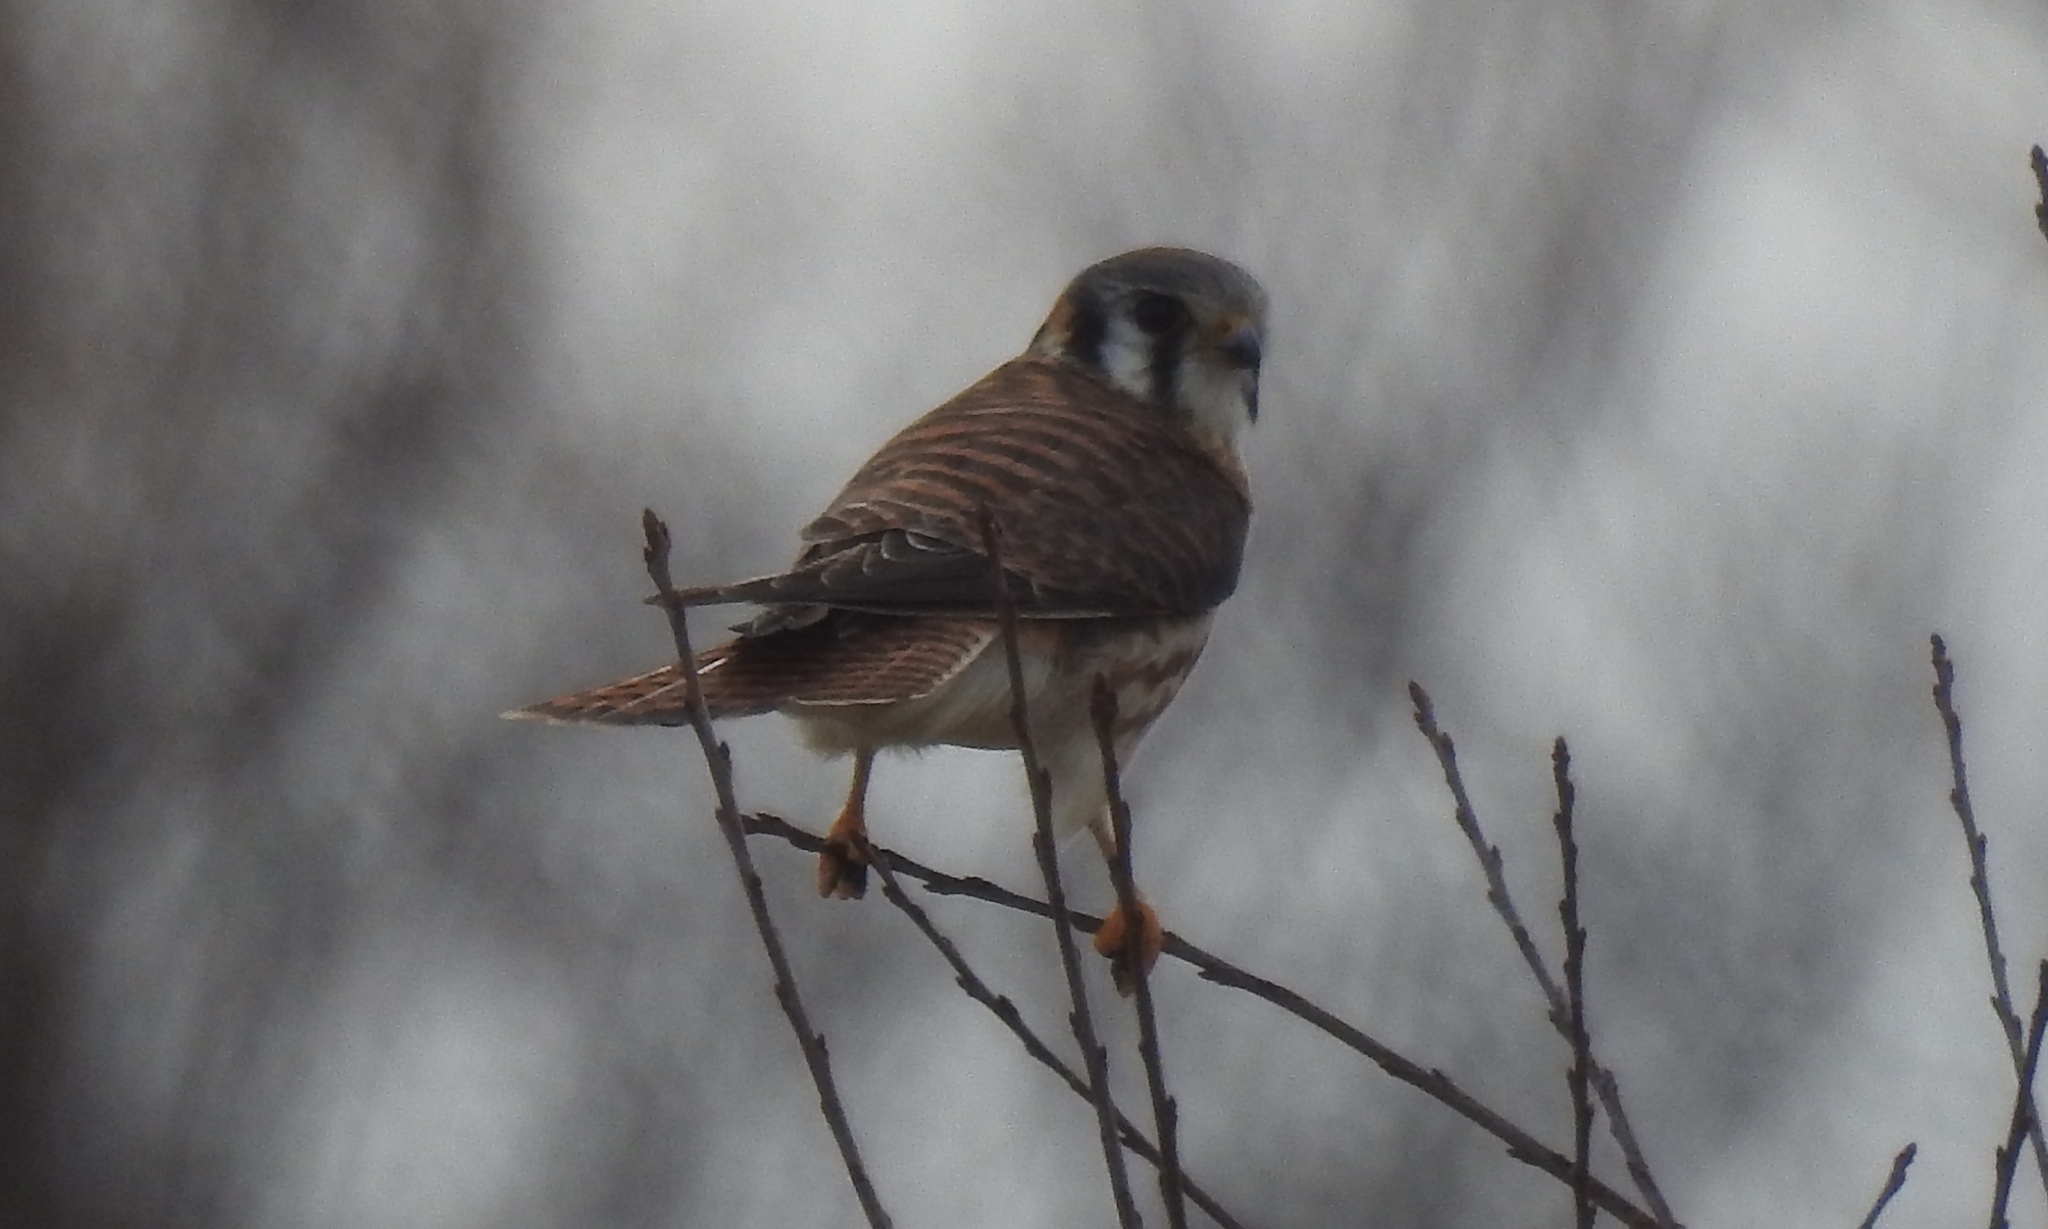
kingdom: Animalia
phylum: Chordata
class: Aves
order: Falconiformes
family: Falconidae
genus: Falco
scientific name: Falco sparverius
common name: American kestrel
